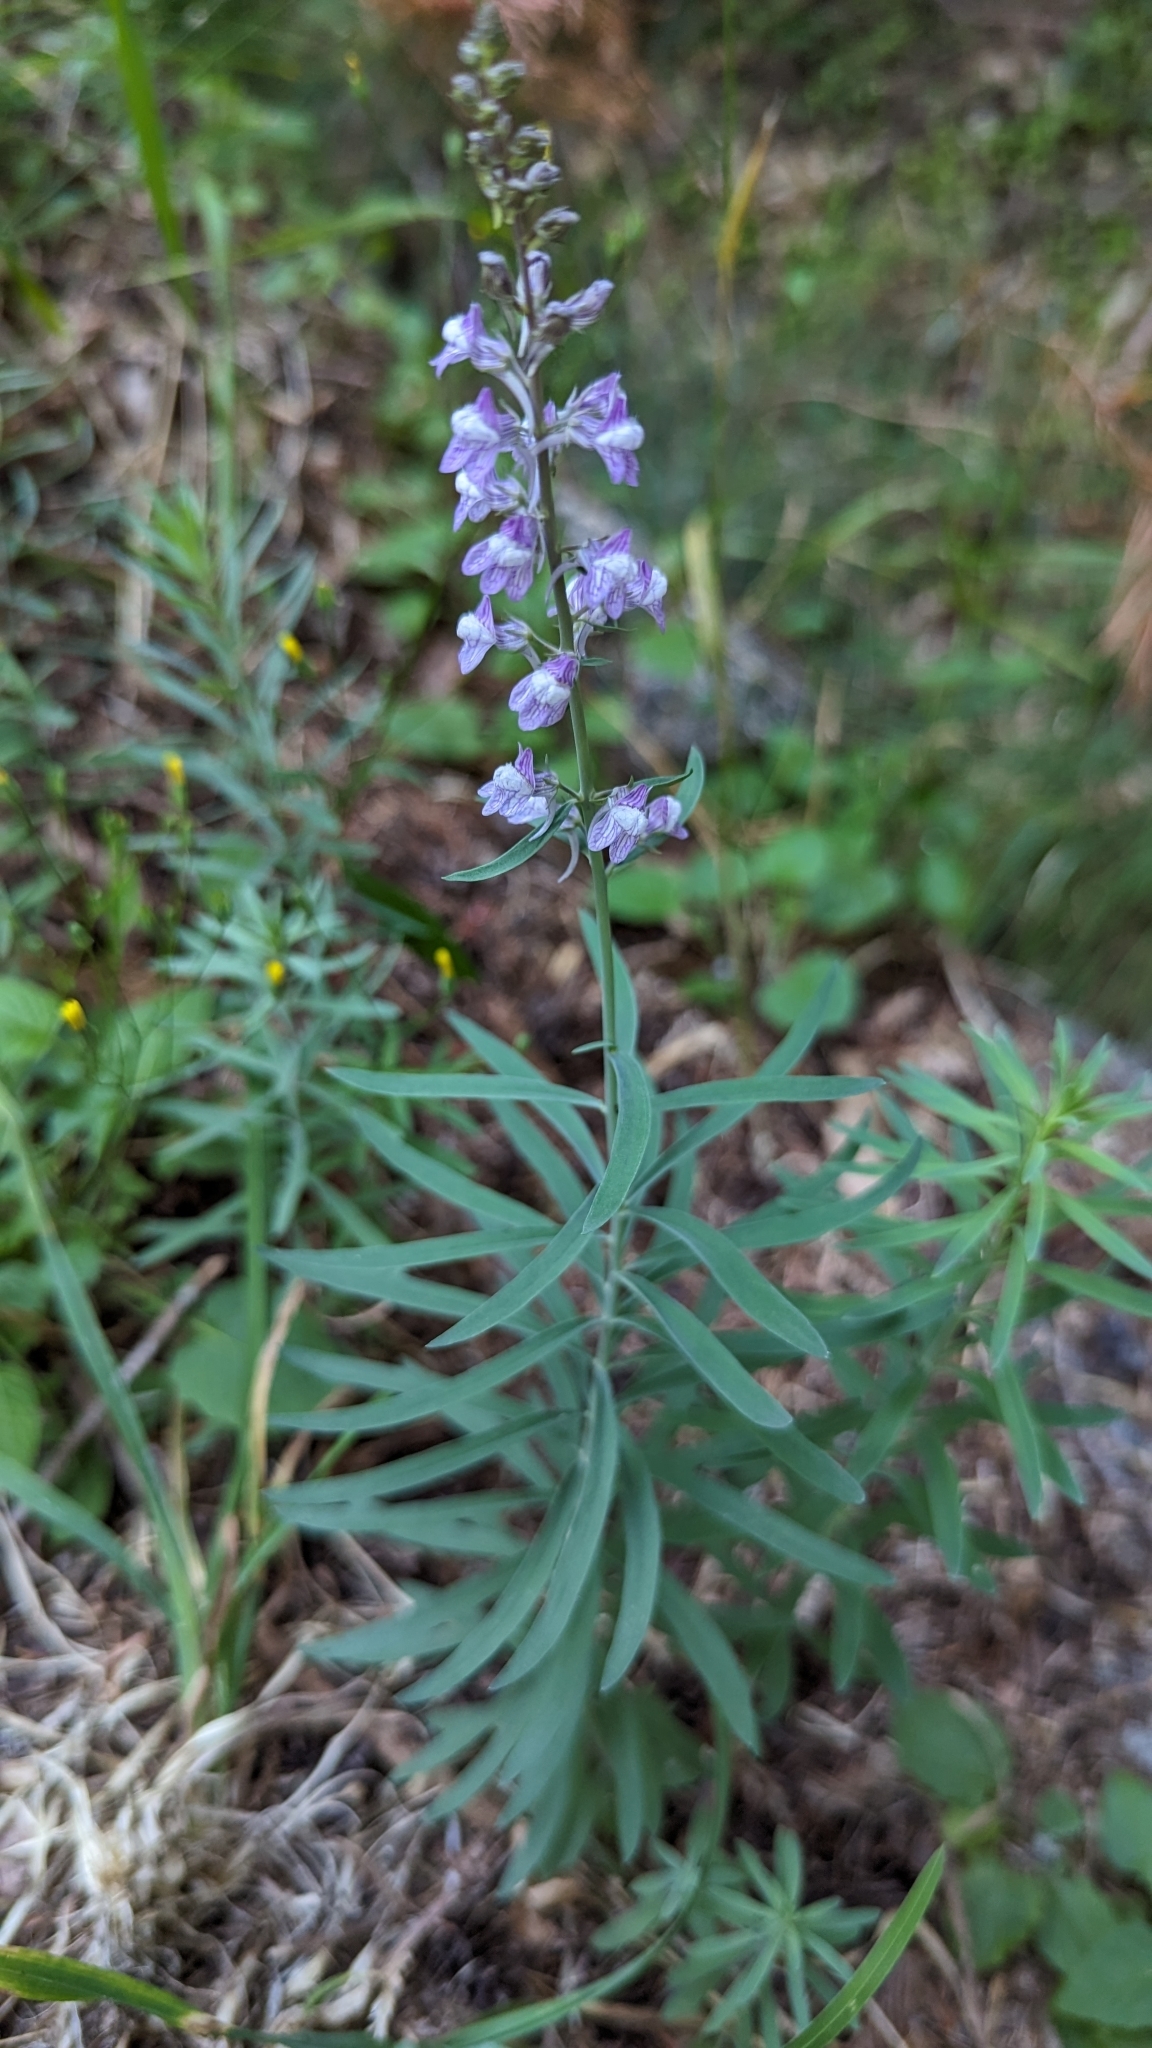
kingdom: Plantae
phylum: Tracheophyta
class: Magnoliopsida
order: Lamiales
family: Plantaginaceae
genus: Linaria
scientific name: Linaria purpurea
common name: Purple toadflax
